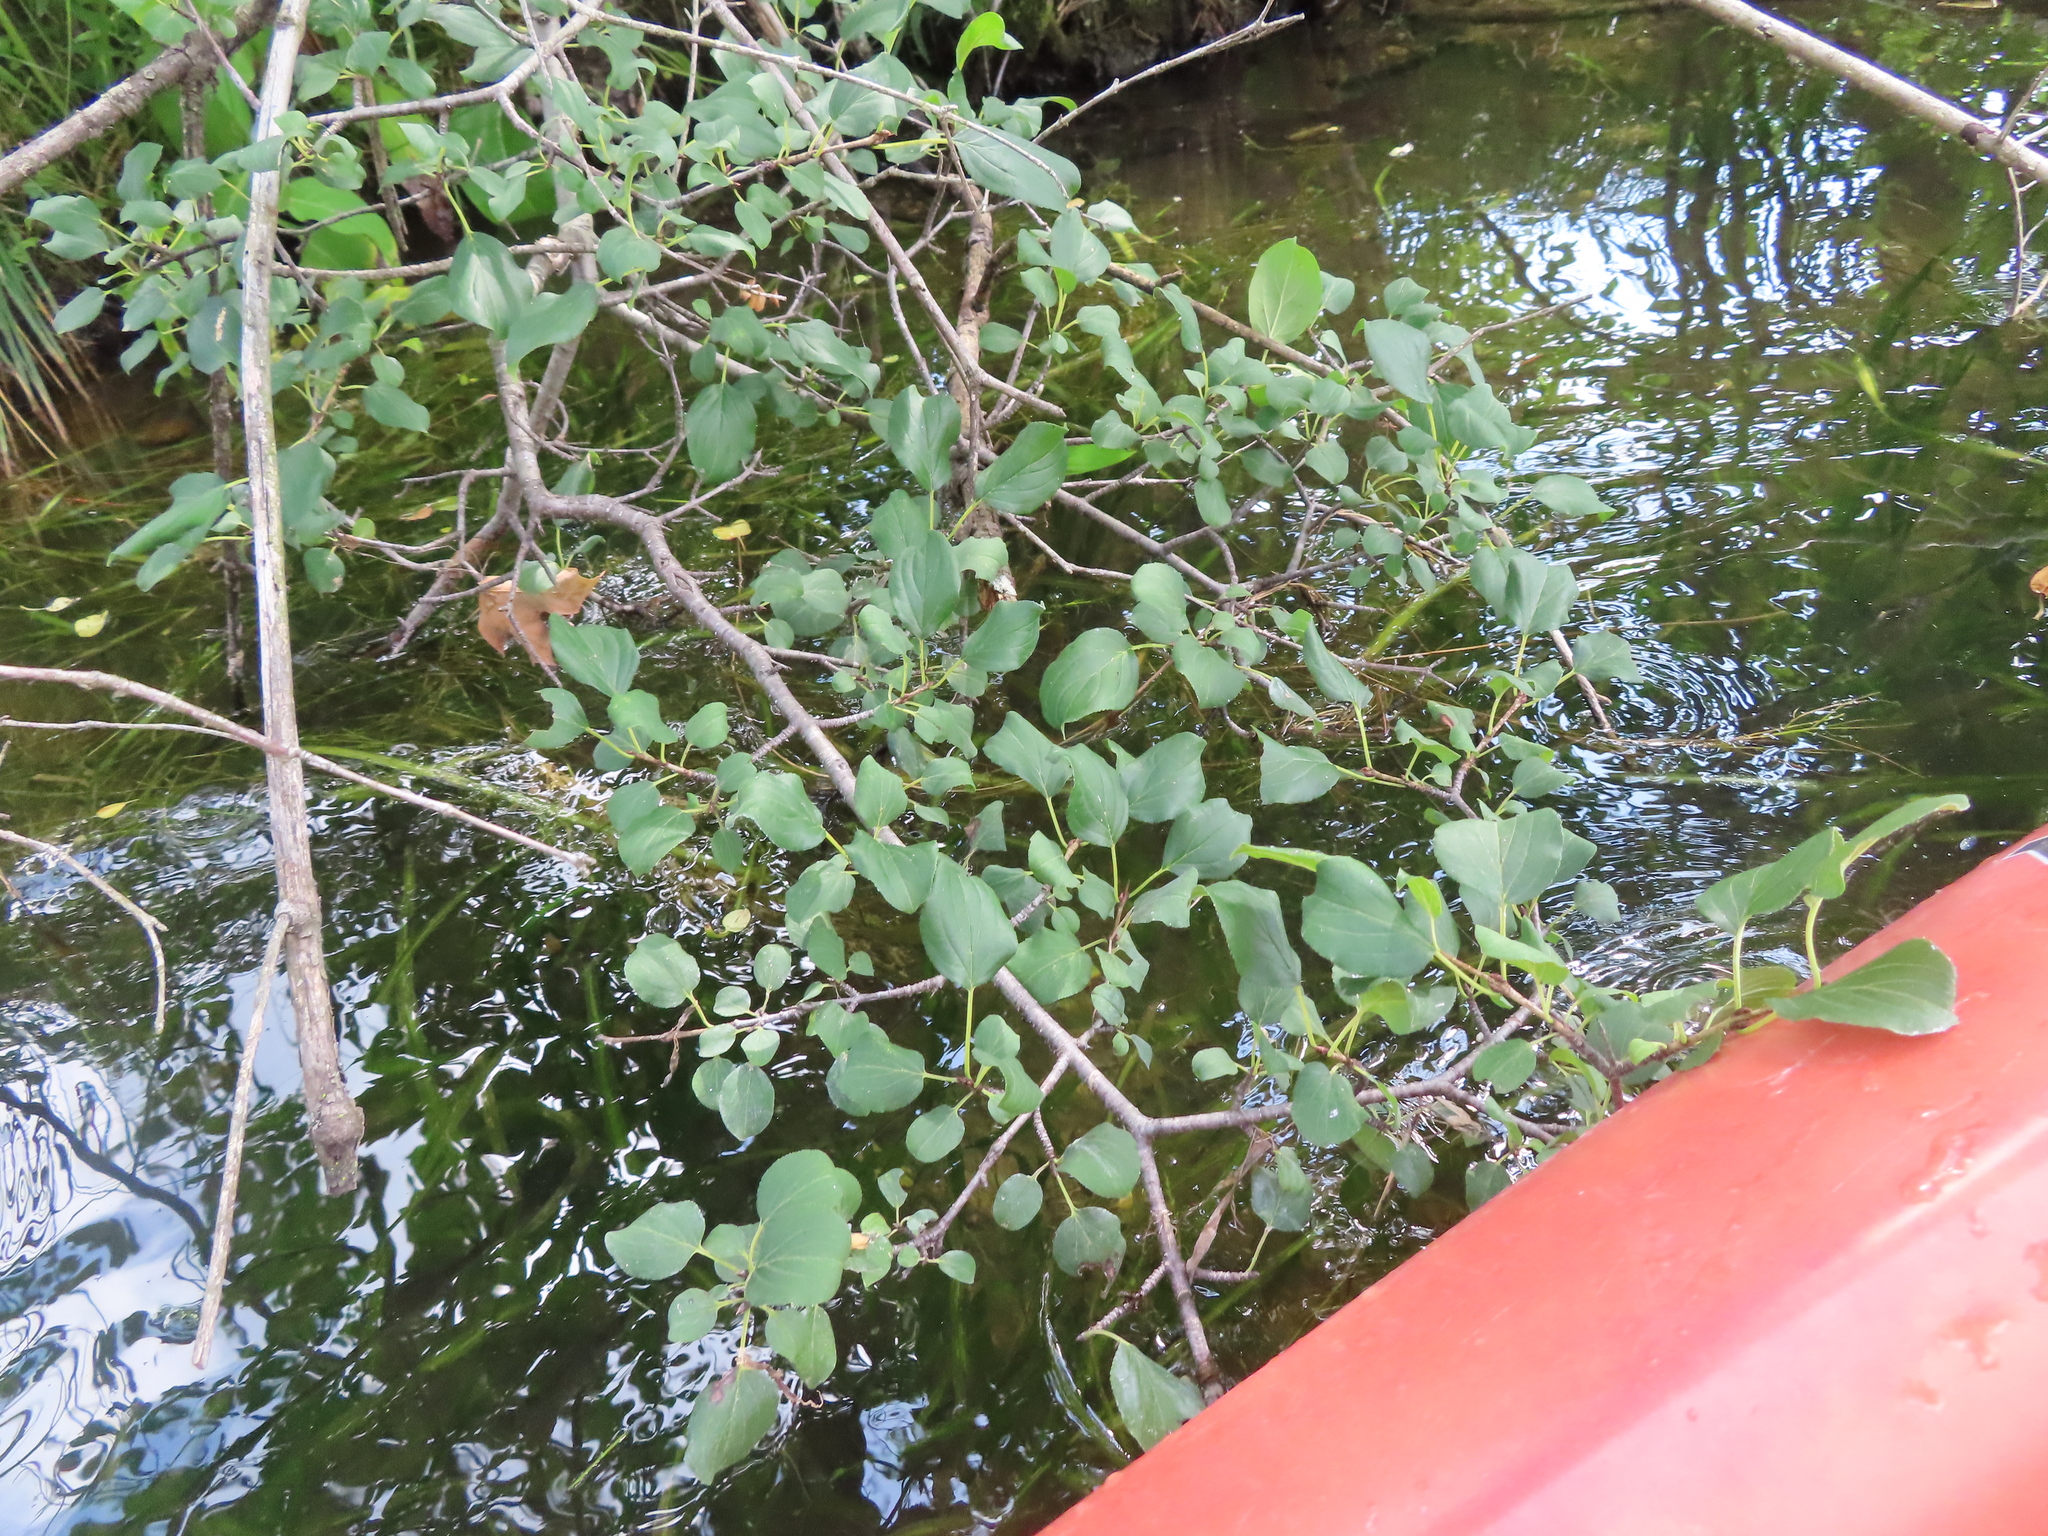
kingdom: Plantae
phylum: Tracheophyta
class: Magnoliopsida
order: Rosales
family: Rhamnaceae
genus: Rhamnus
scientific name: Rhamnus cathartica
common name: Common buckthorn
